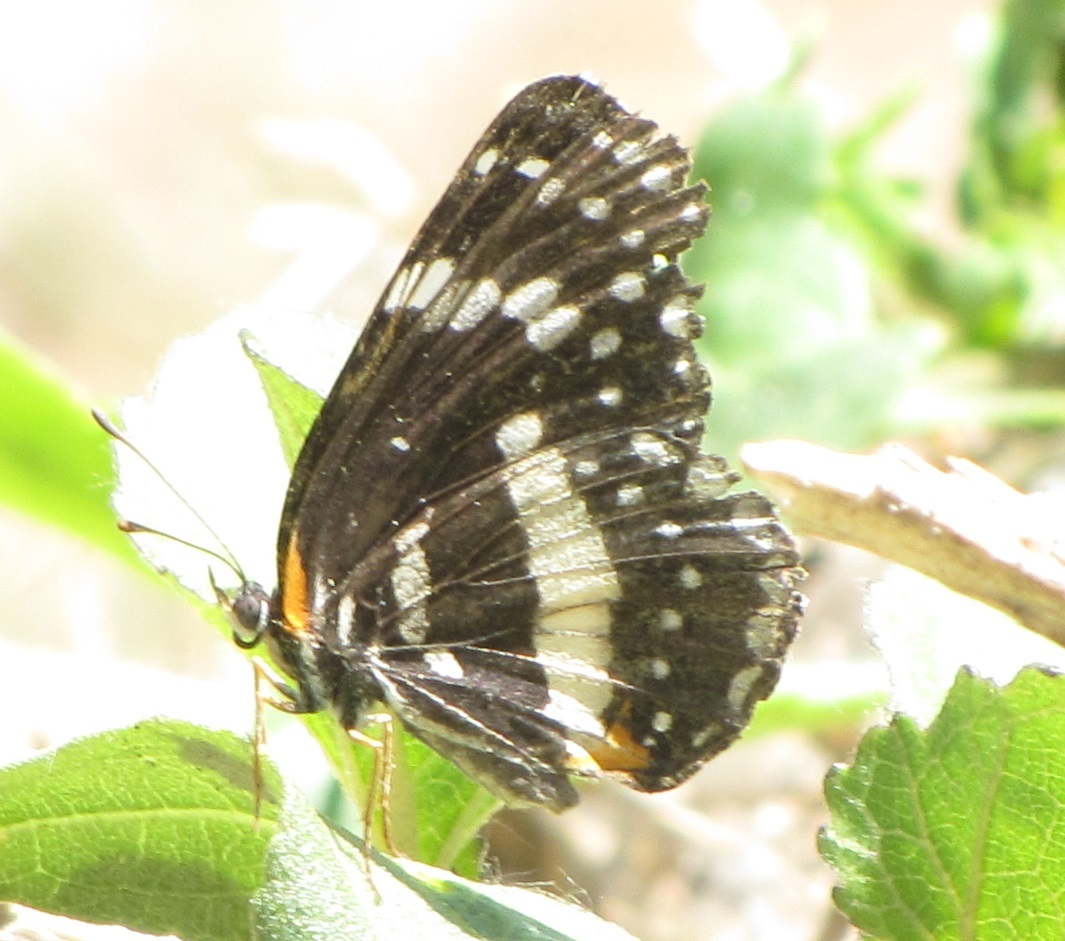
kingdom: Animalia
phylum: Arthropoda
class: Insecta
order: Lepidoptera
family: Nymphalidae
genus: Chlosyne
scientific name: Chlosyne lacinia
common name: Bordered patch
